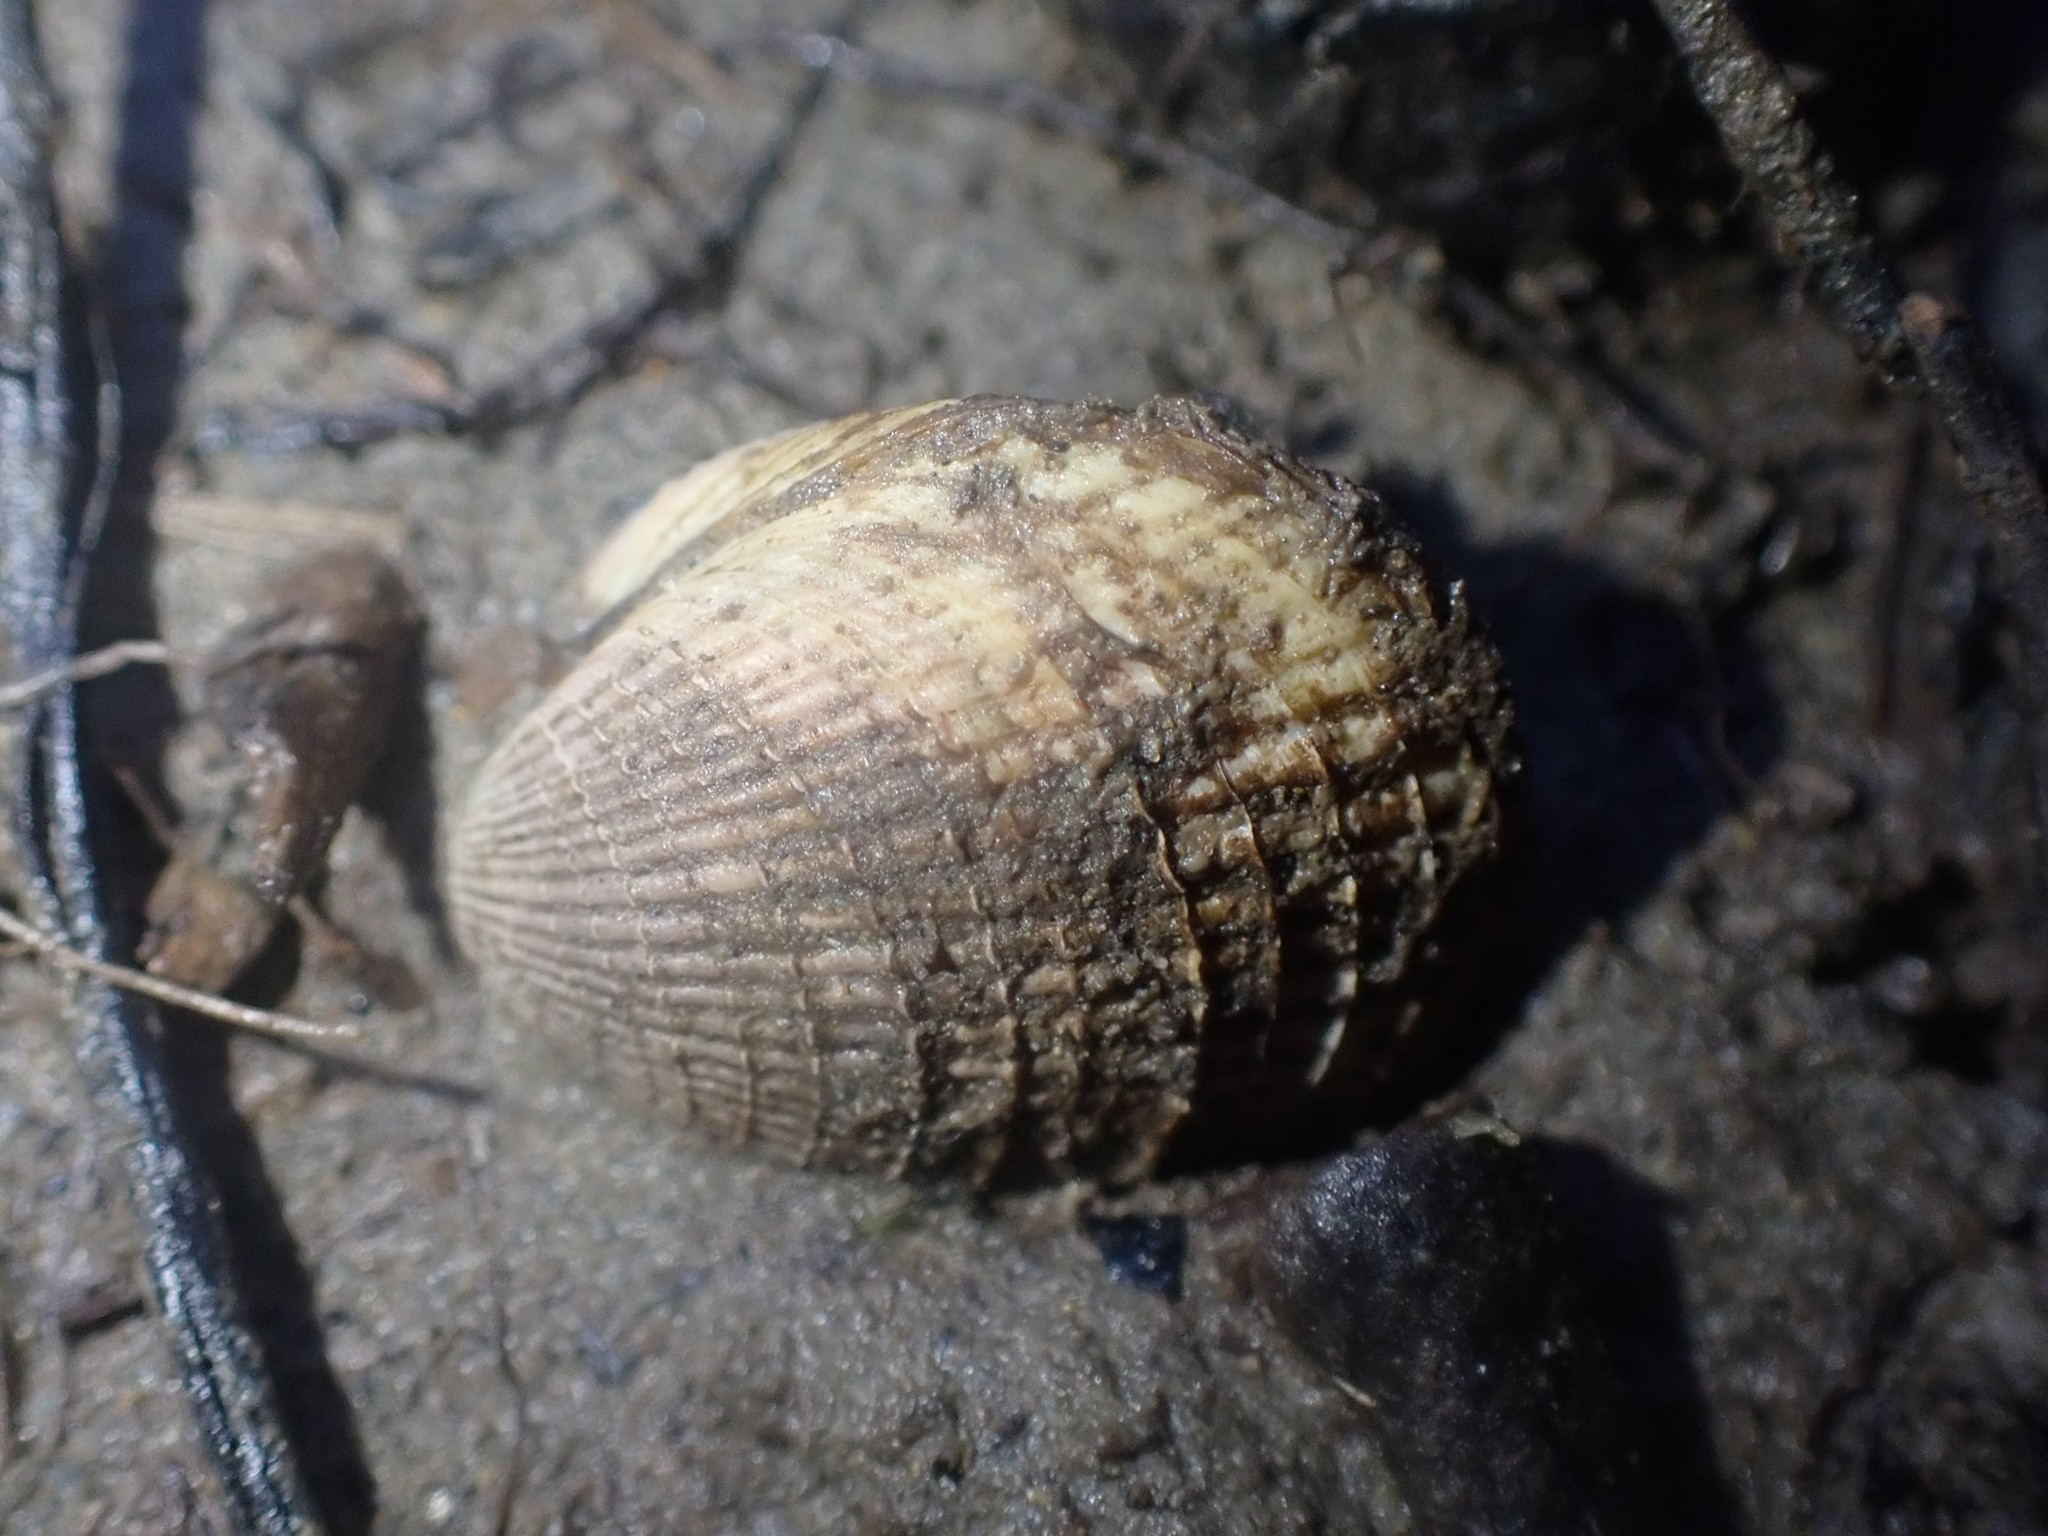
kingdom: Animalia
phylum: Mollusca
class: Bivalvia
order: Venerida
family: Veneridae
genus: Austrovenus
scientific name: Austrovenus stutchburyi
